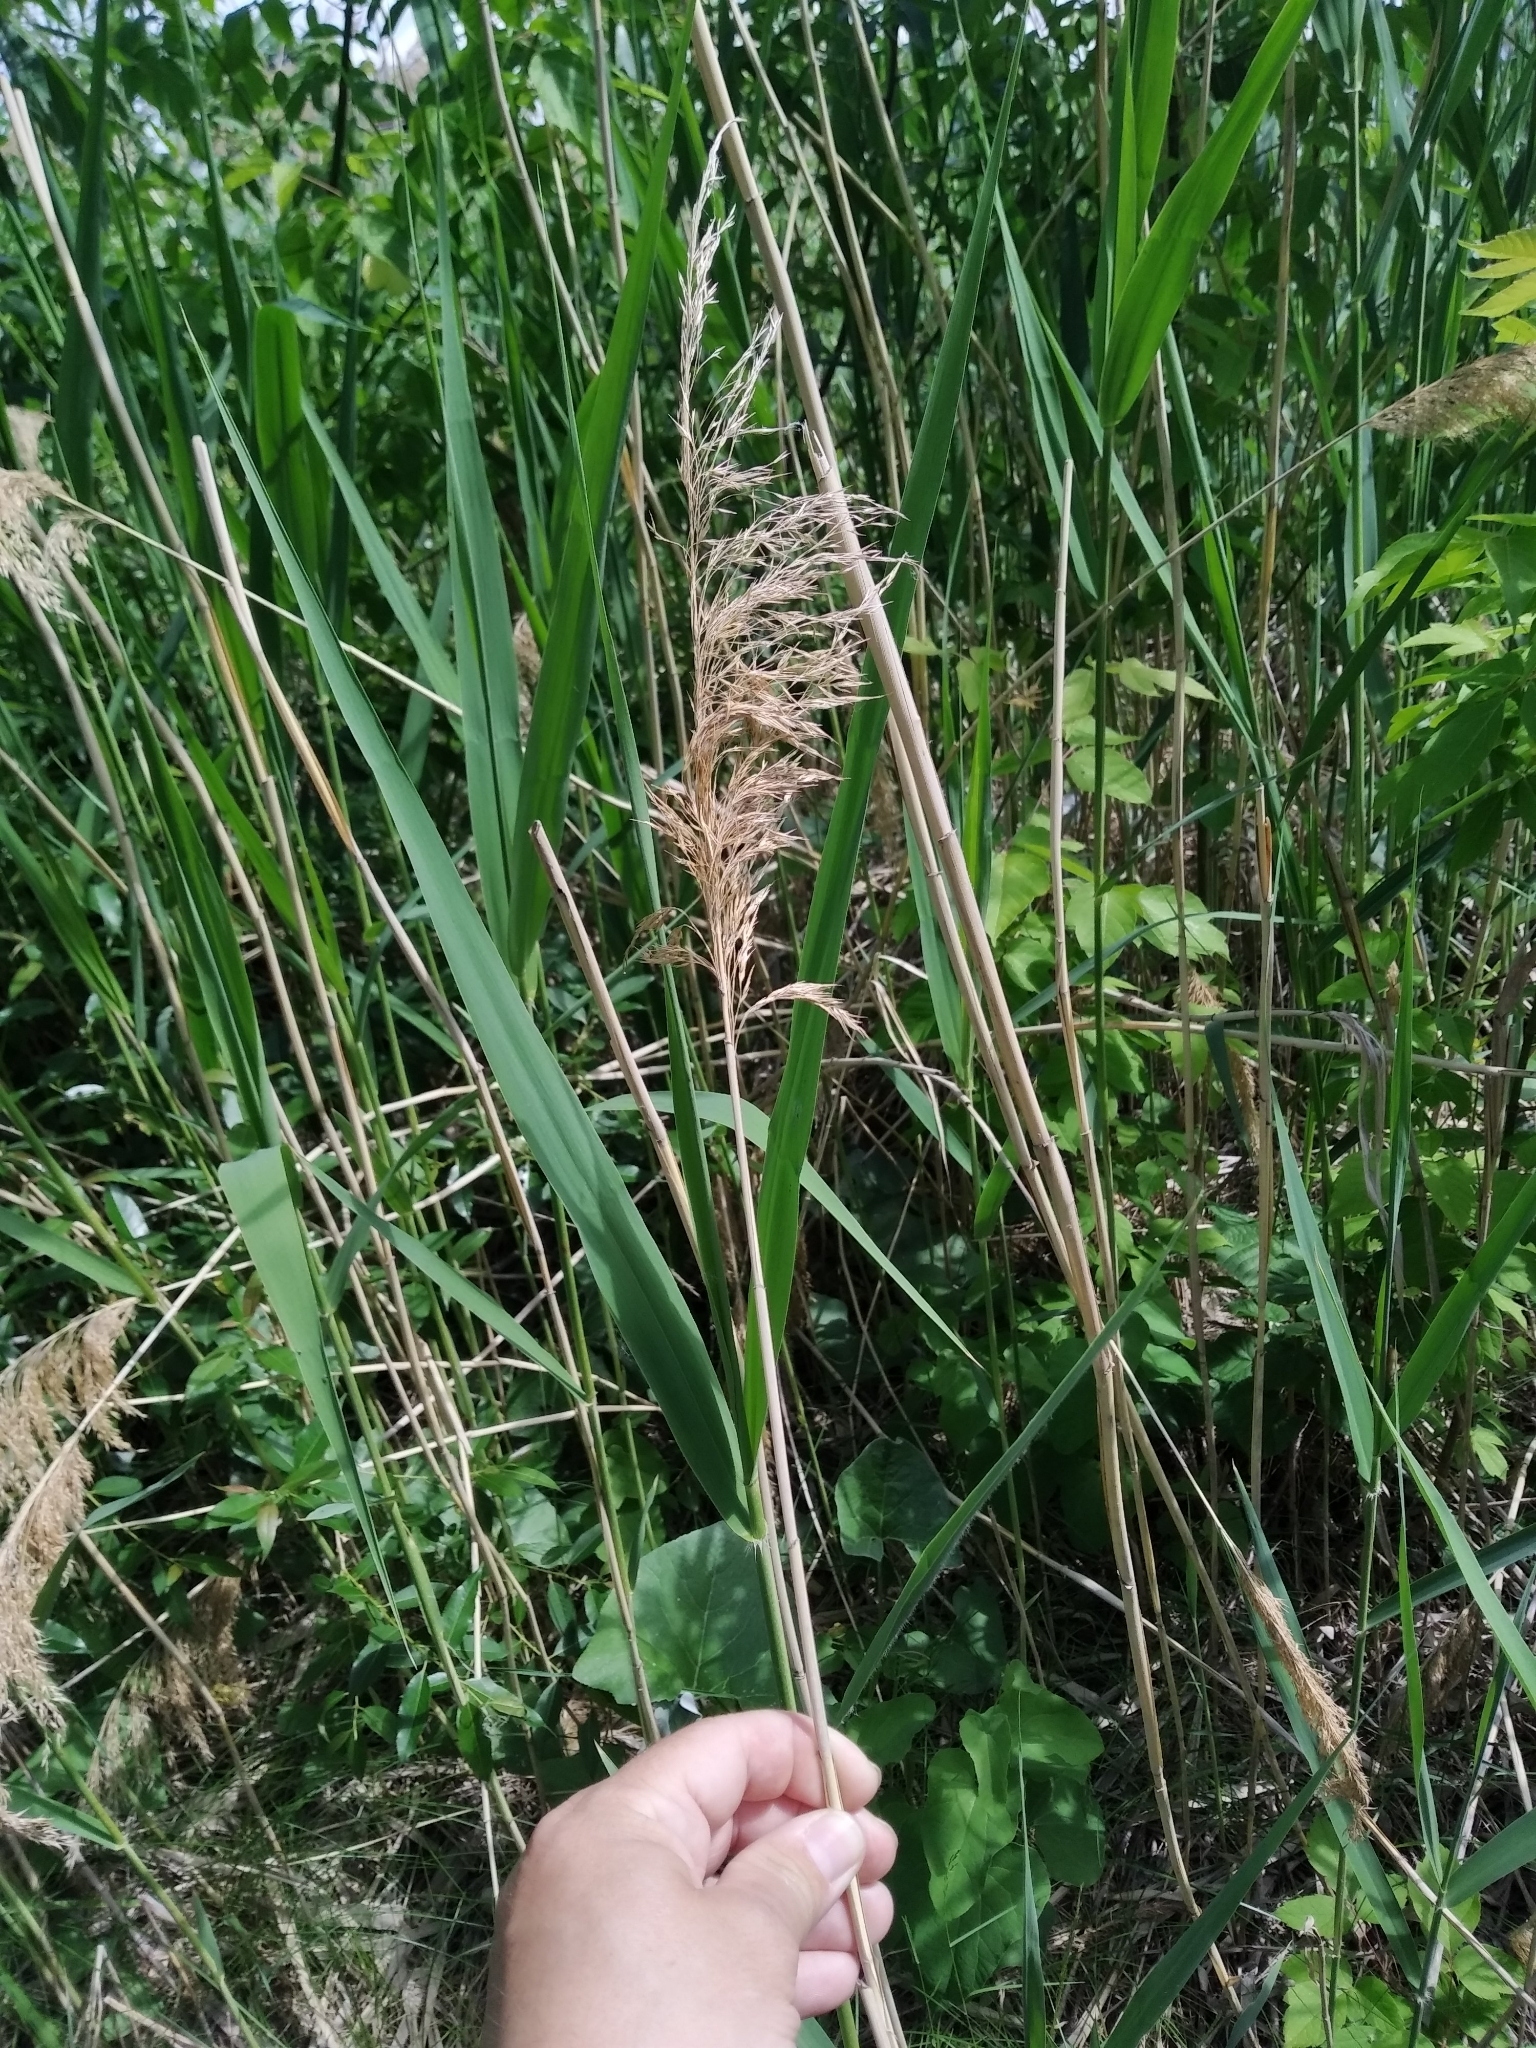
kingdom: Plantae
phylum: Tracheophyta
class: Liliopsida
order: Poales
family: Poaceae
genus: Phragmites
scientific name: Phragmites australis
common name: Common reed
